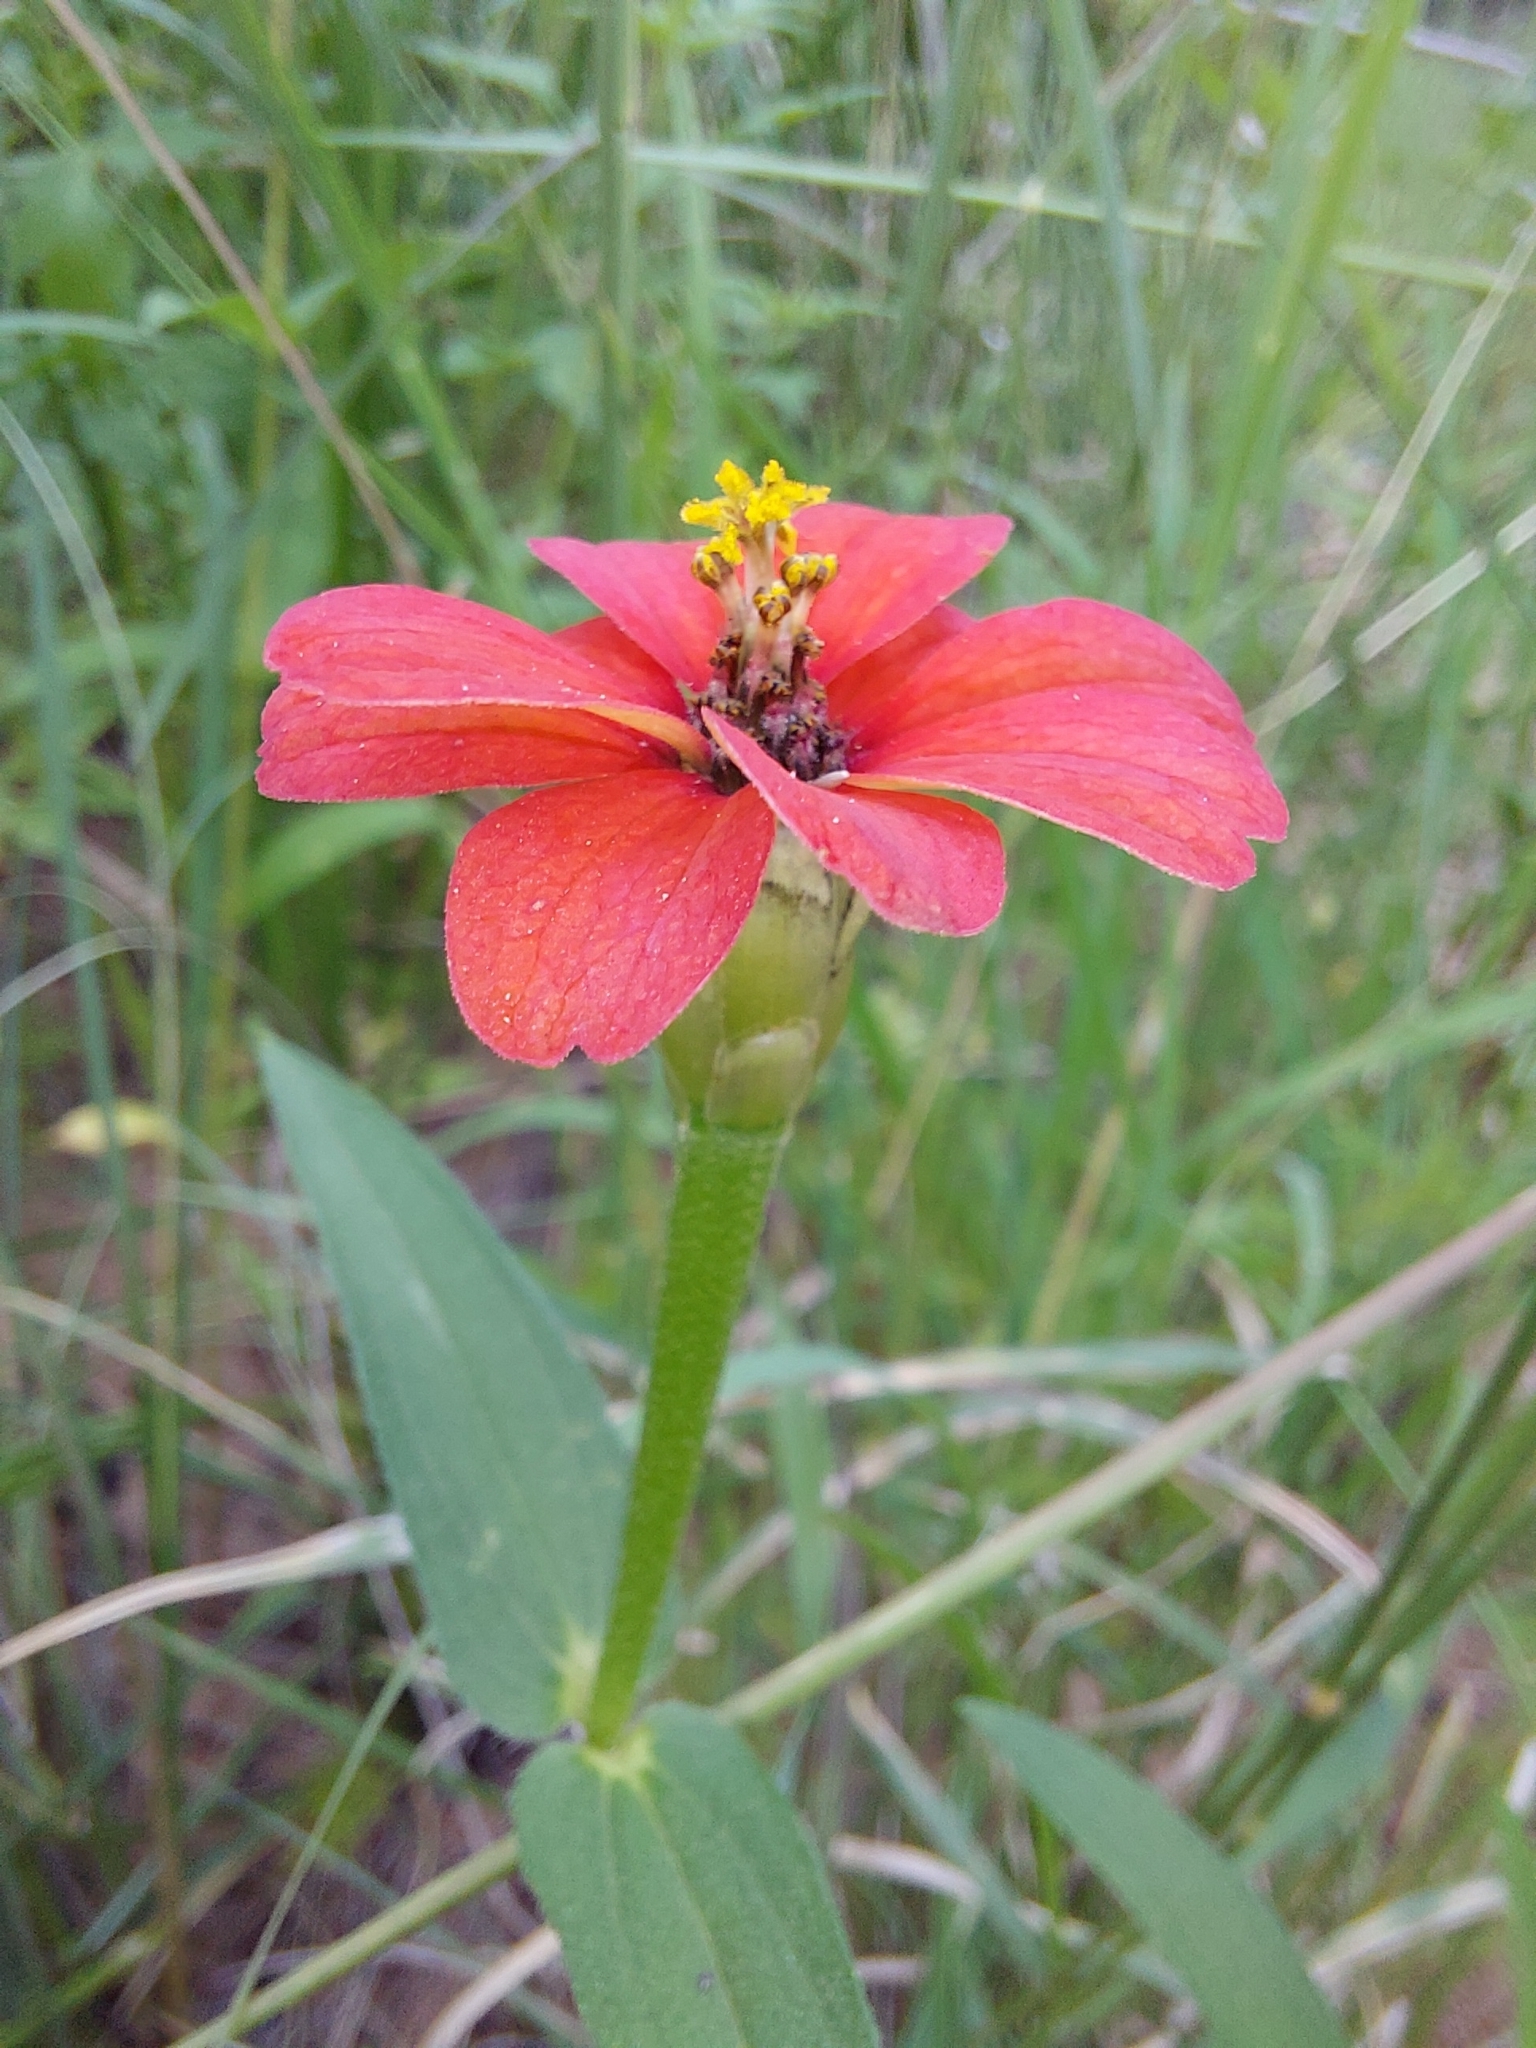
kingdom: Plantae
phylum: Tracheophyta
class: Magnoliopsida
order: Asterales
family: Asteraceae
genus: Zinnia
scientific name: Zinnia peruviana
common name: Peruvian zinnia
